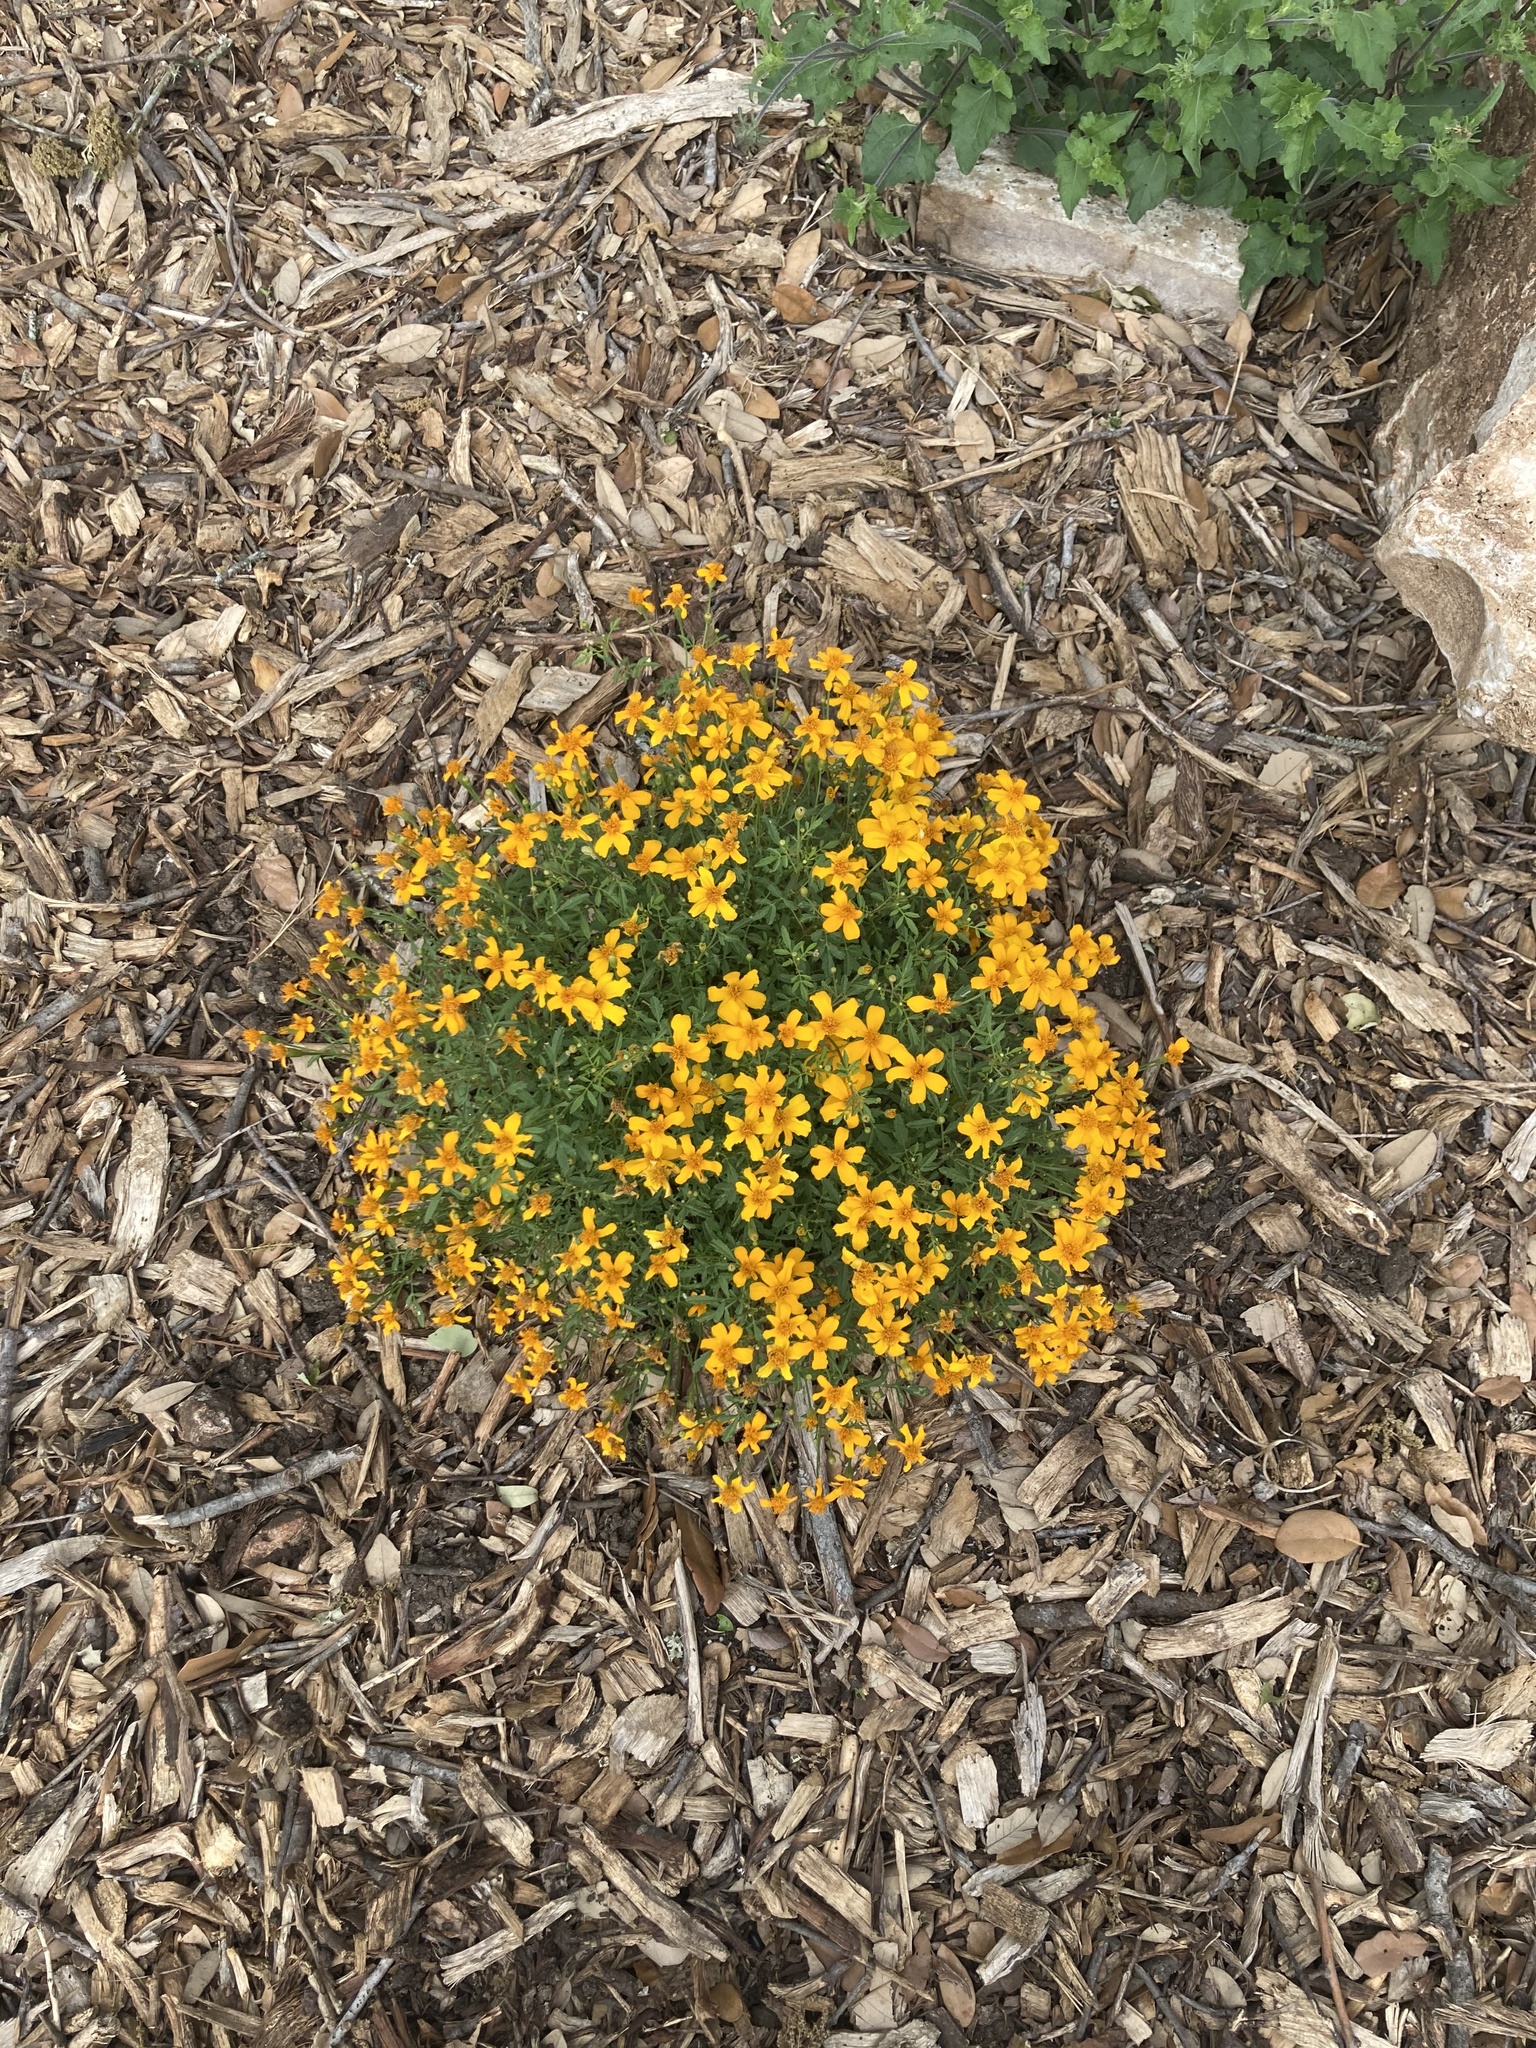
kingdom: Plantae
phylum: Tracheophyta
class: Magnoliopsida
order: Asterales
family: Asteraceae
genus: Chrysactinia
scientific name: Chrysactinia mexicana
